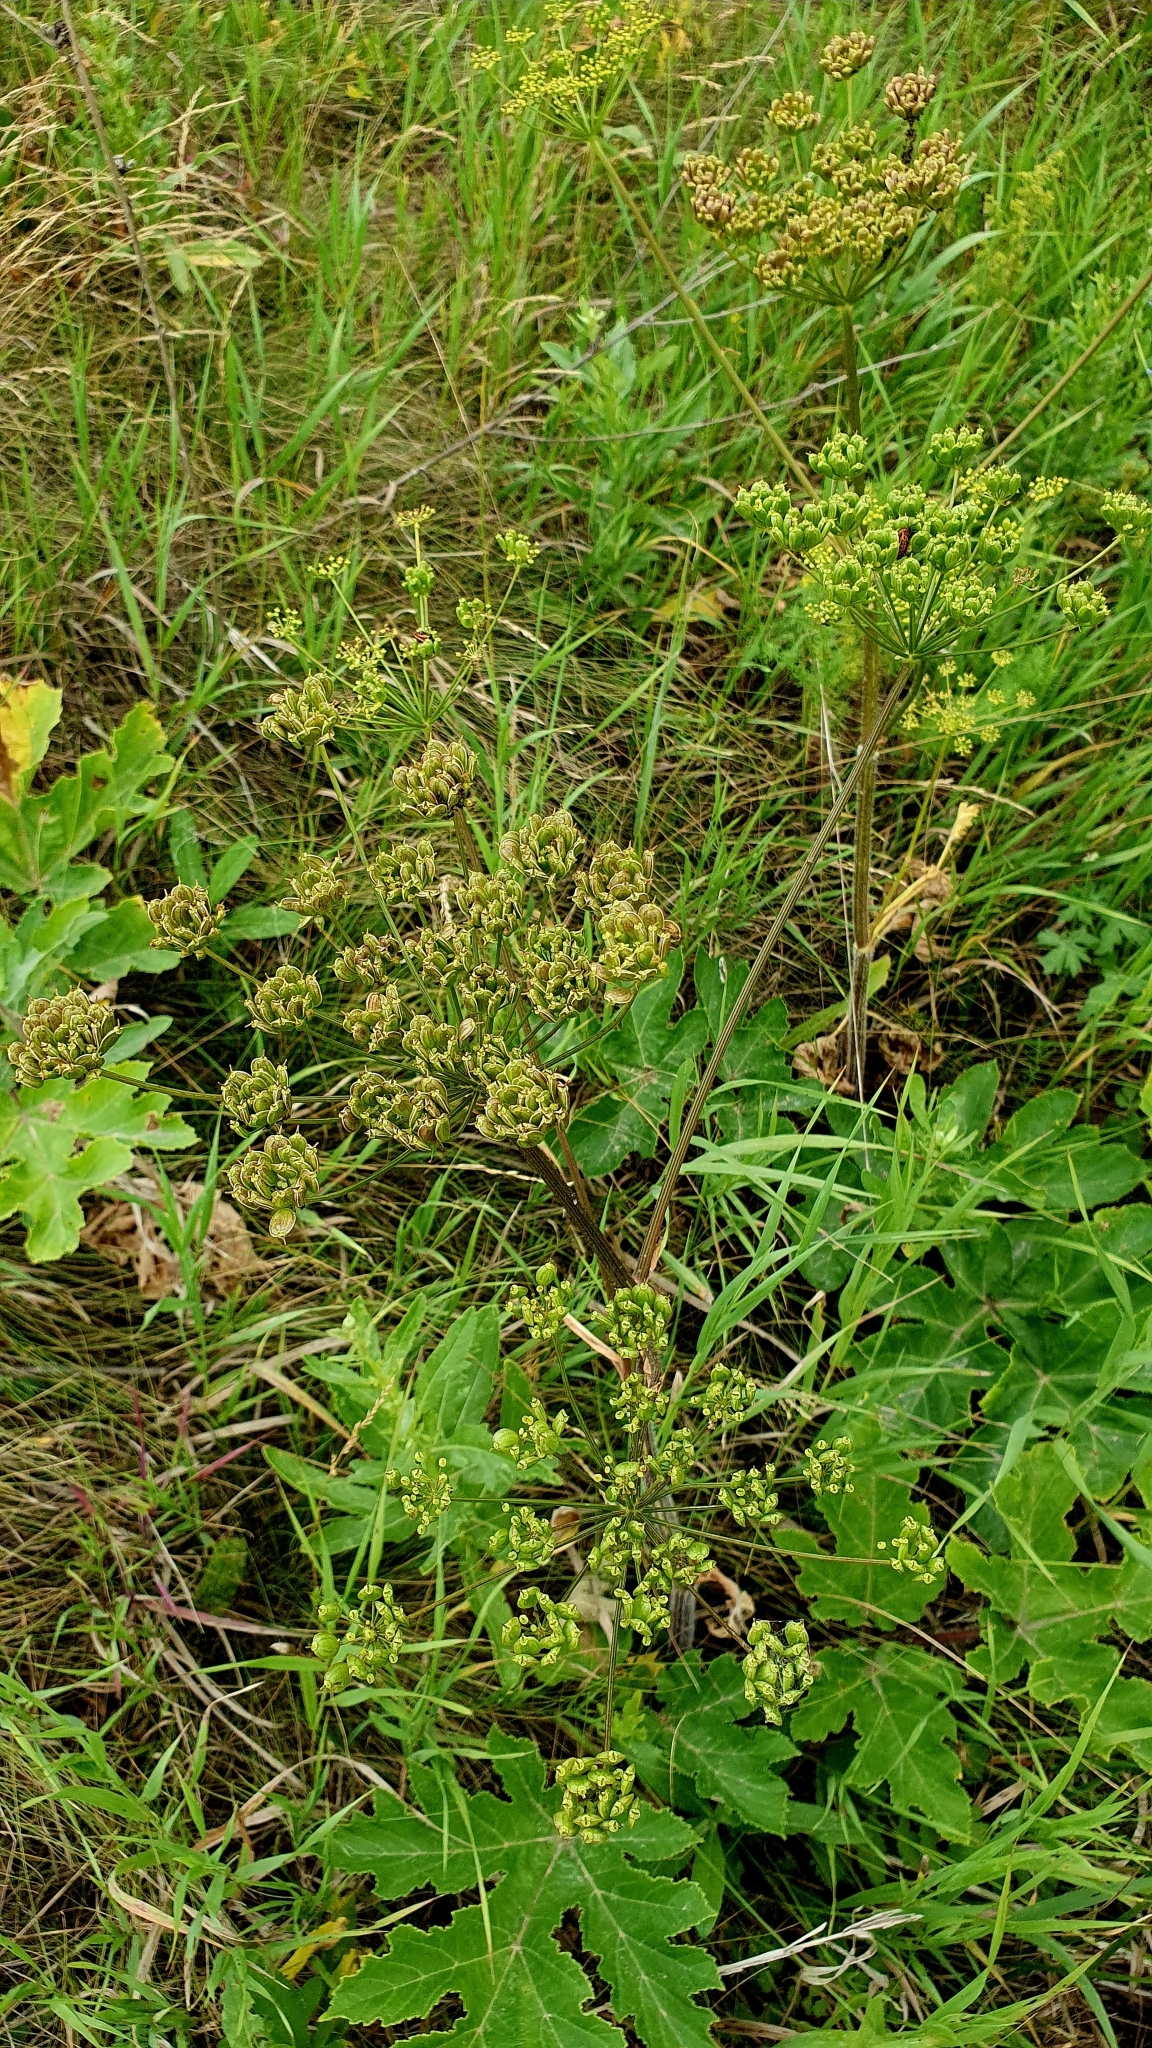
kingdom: Plantae
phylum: Tracheophyta
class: Magnoliopsida
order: Apiales
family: Apiaceae
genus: Heracleum
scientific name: Heracleum sphondylium
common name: Hogweed
